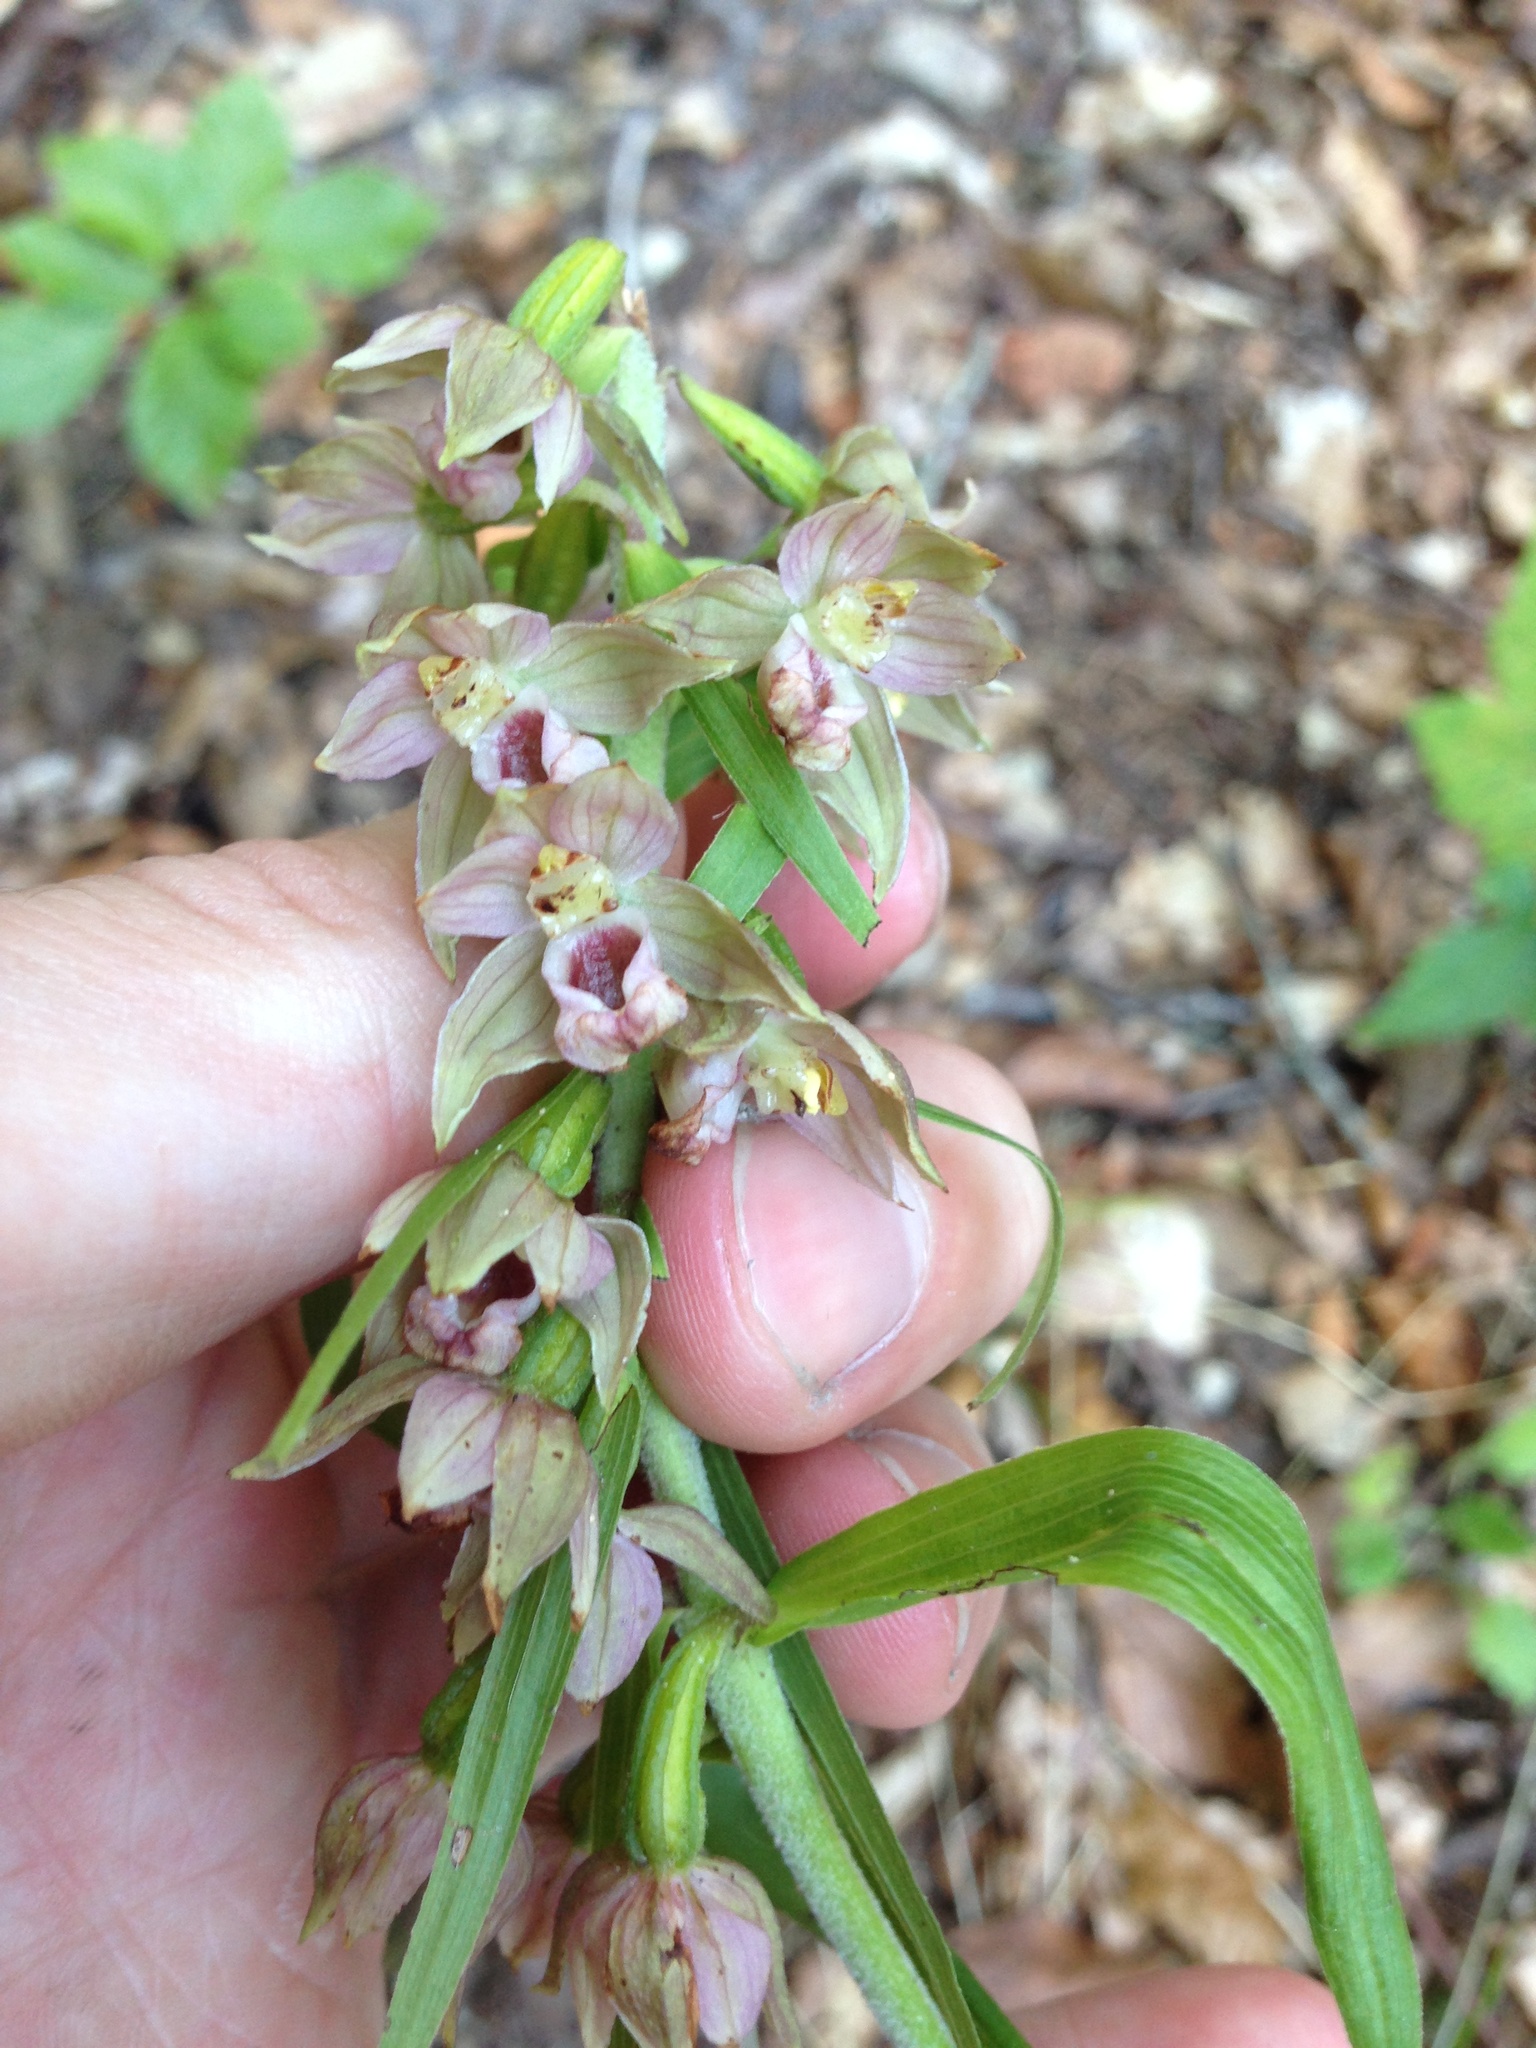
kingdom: Plantae
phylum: Tracheophyta
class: Liliopsida
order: Asparagales
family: Orchidaceae
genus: Epipactis
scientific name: Epipactis helleborine
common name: Broad-leaved helleborine
